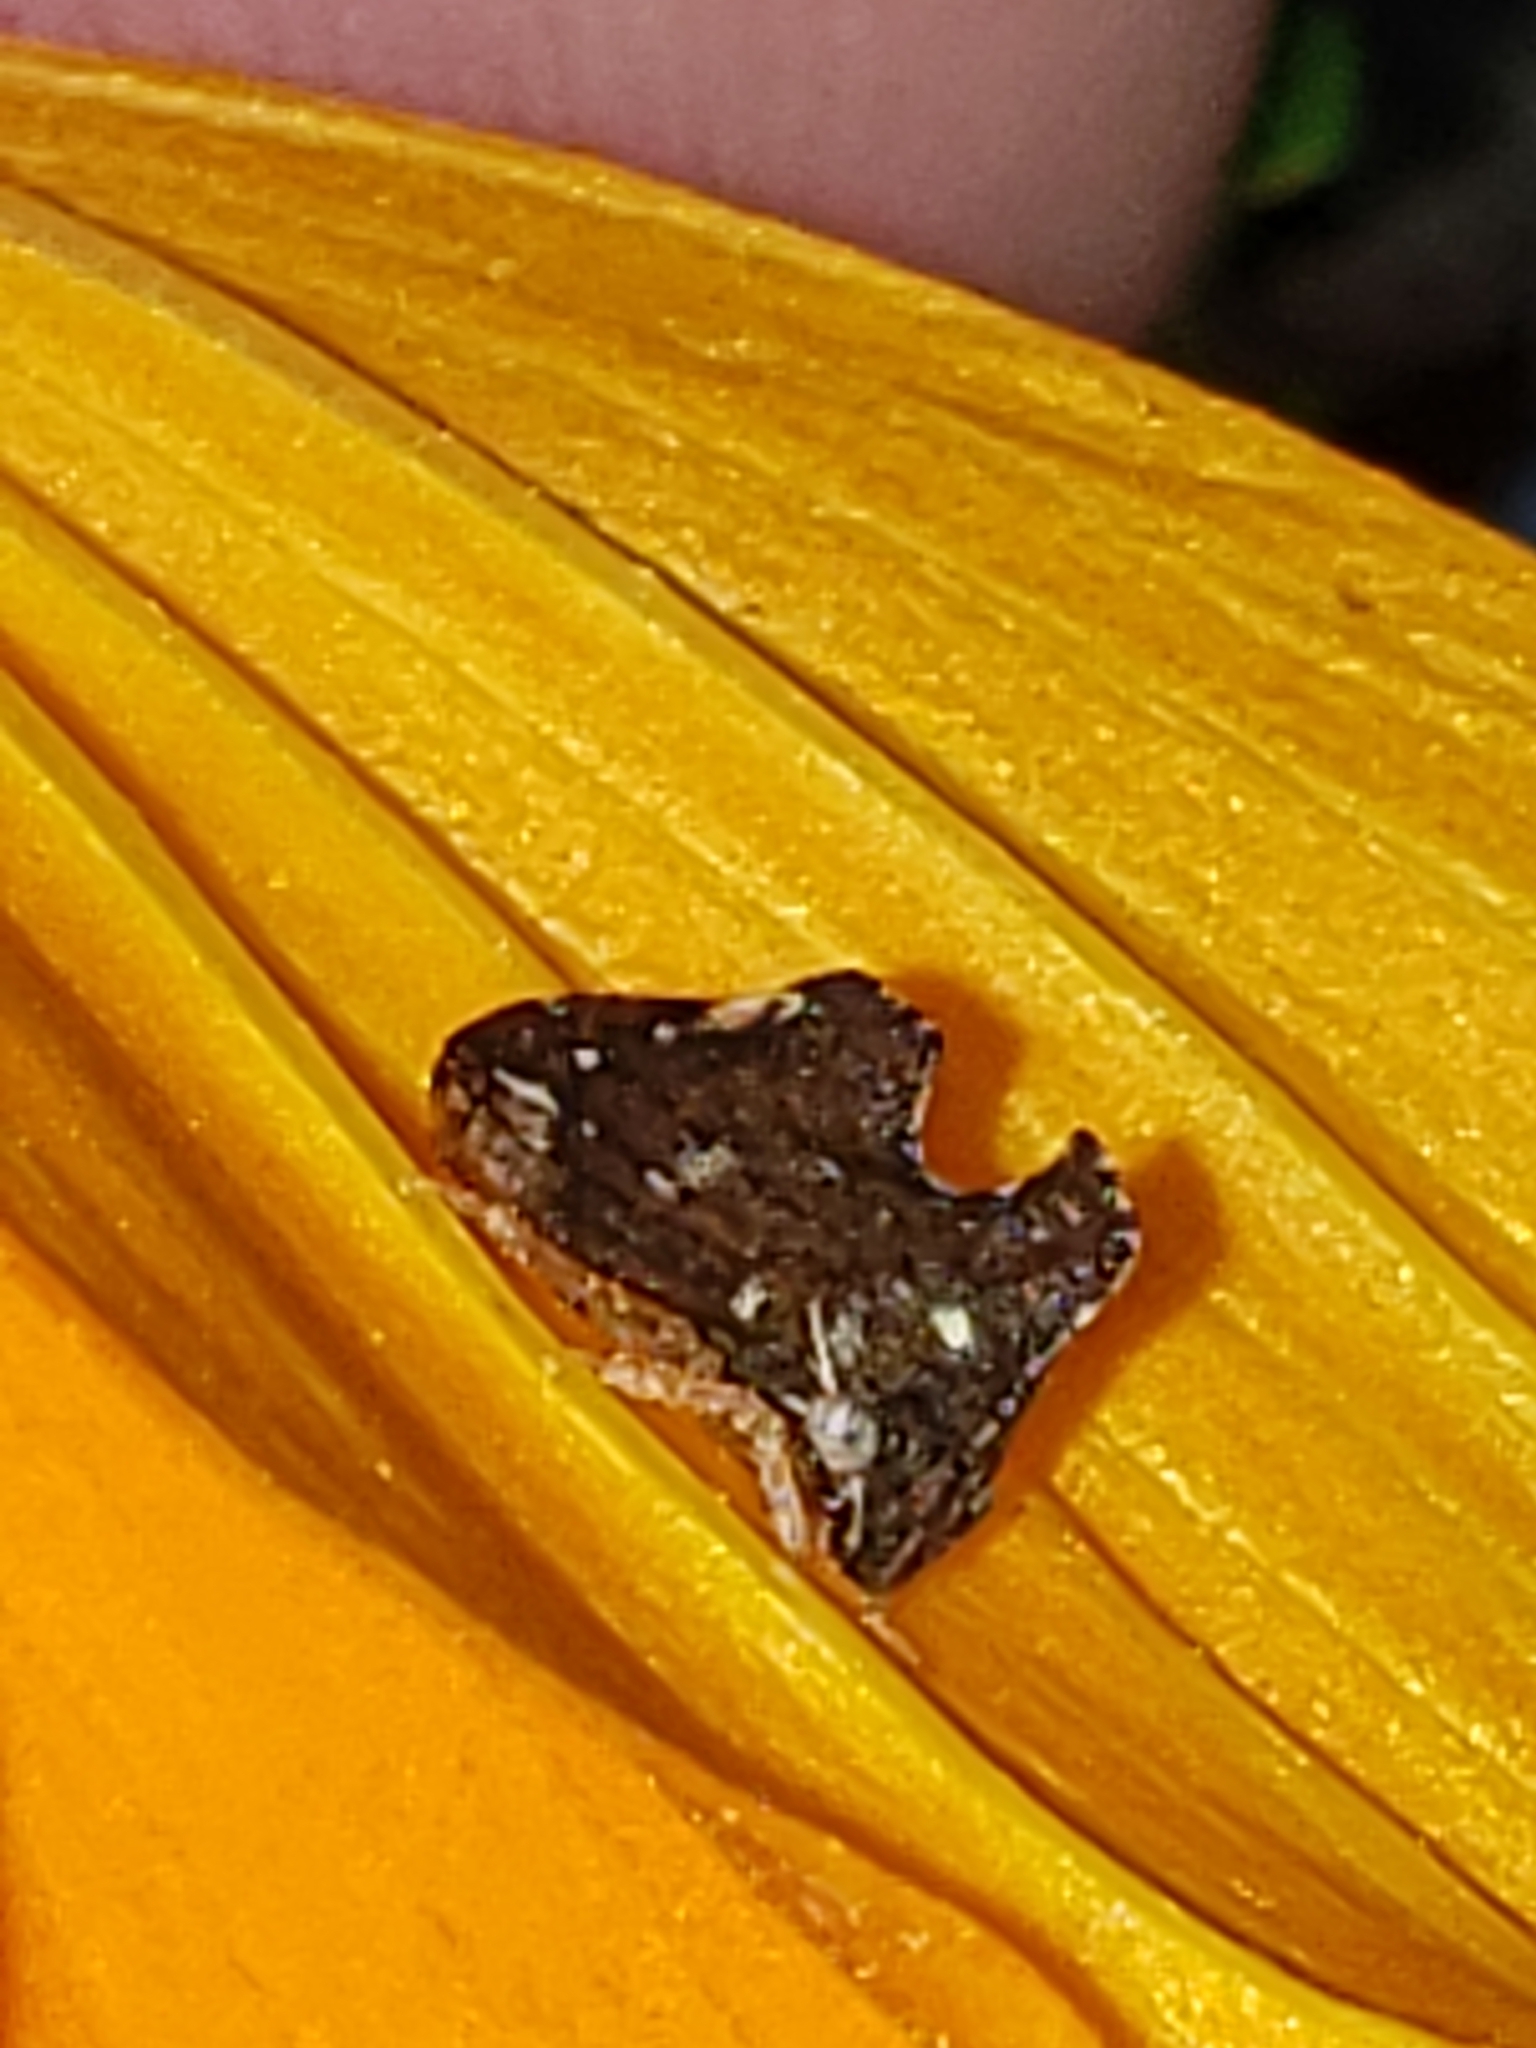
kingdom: Animalia
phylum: Arthropoda
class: Insecta
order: Hemiptera
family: Membracidae
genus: Entylia
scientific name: Entylia carinata
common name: Keeled treehopper
